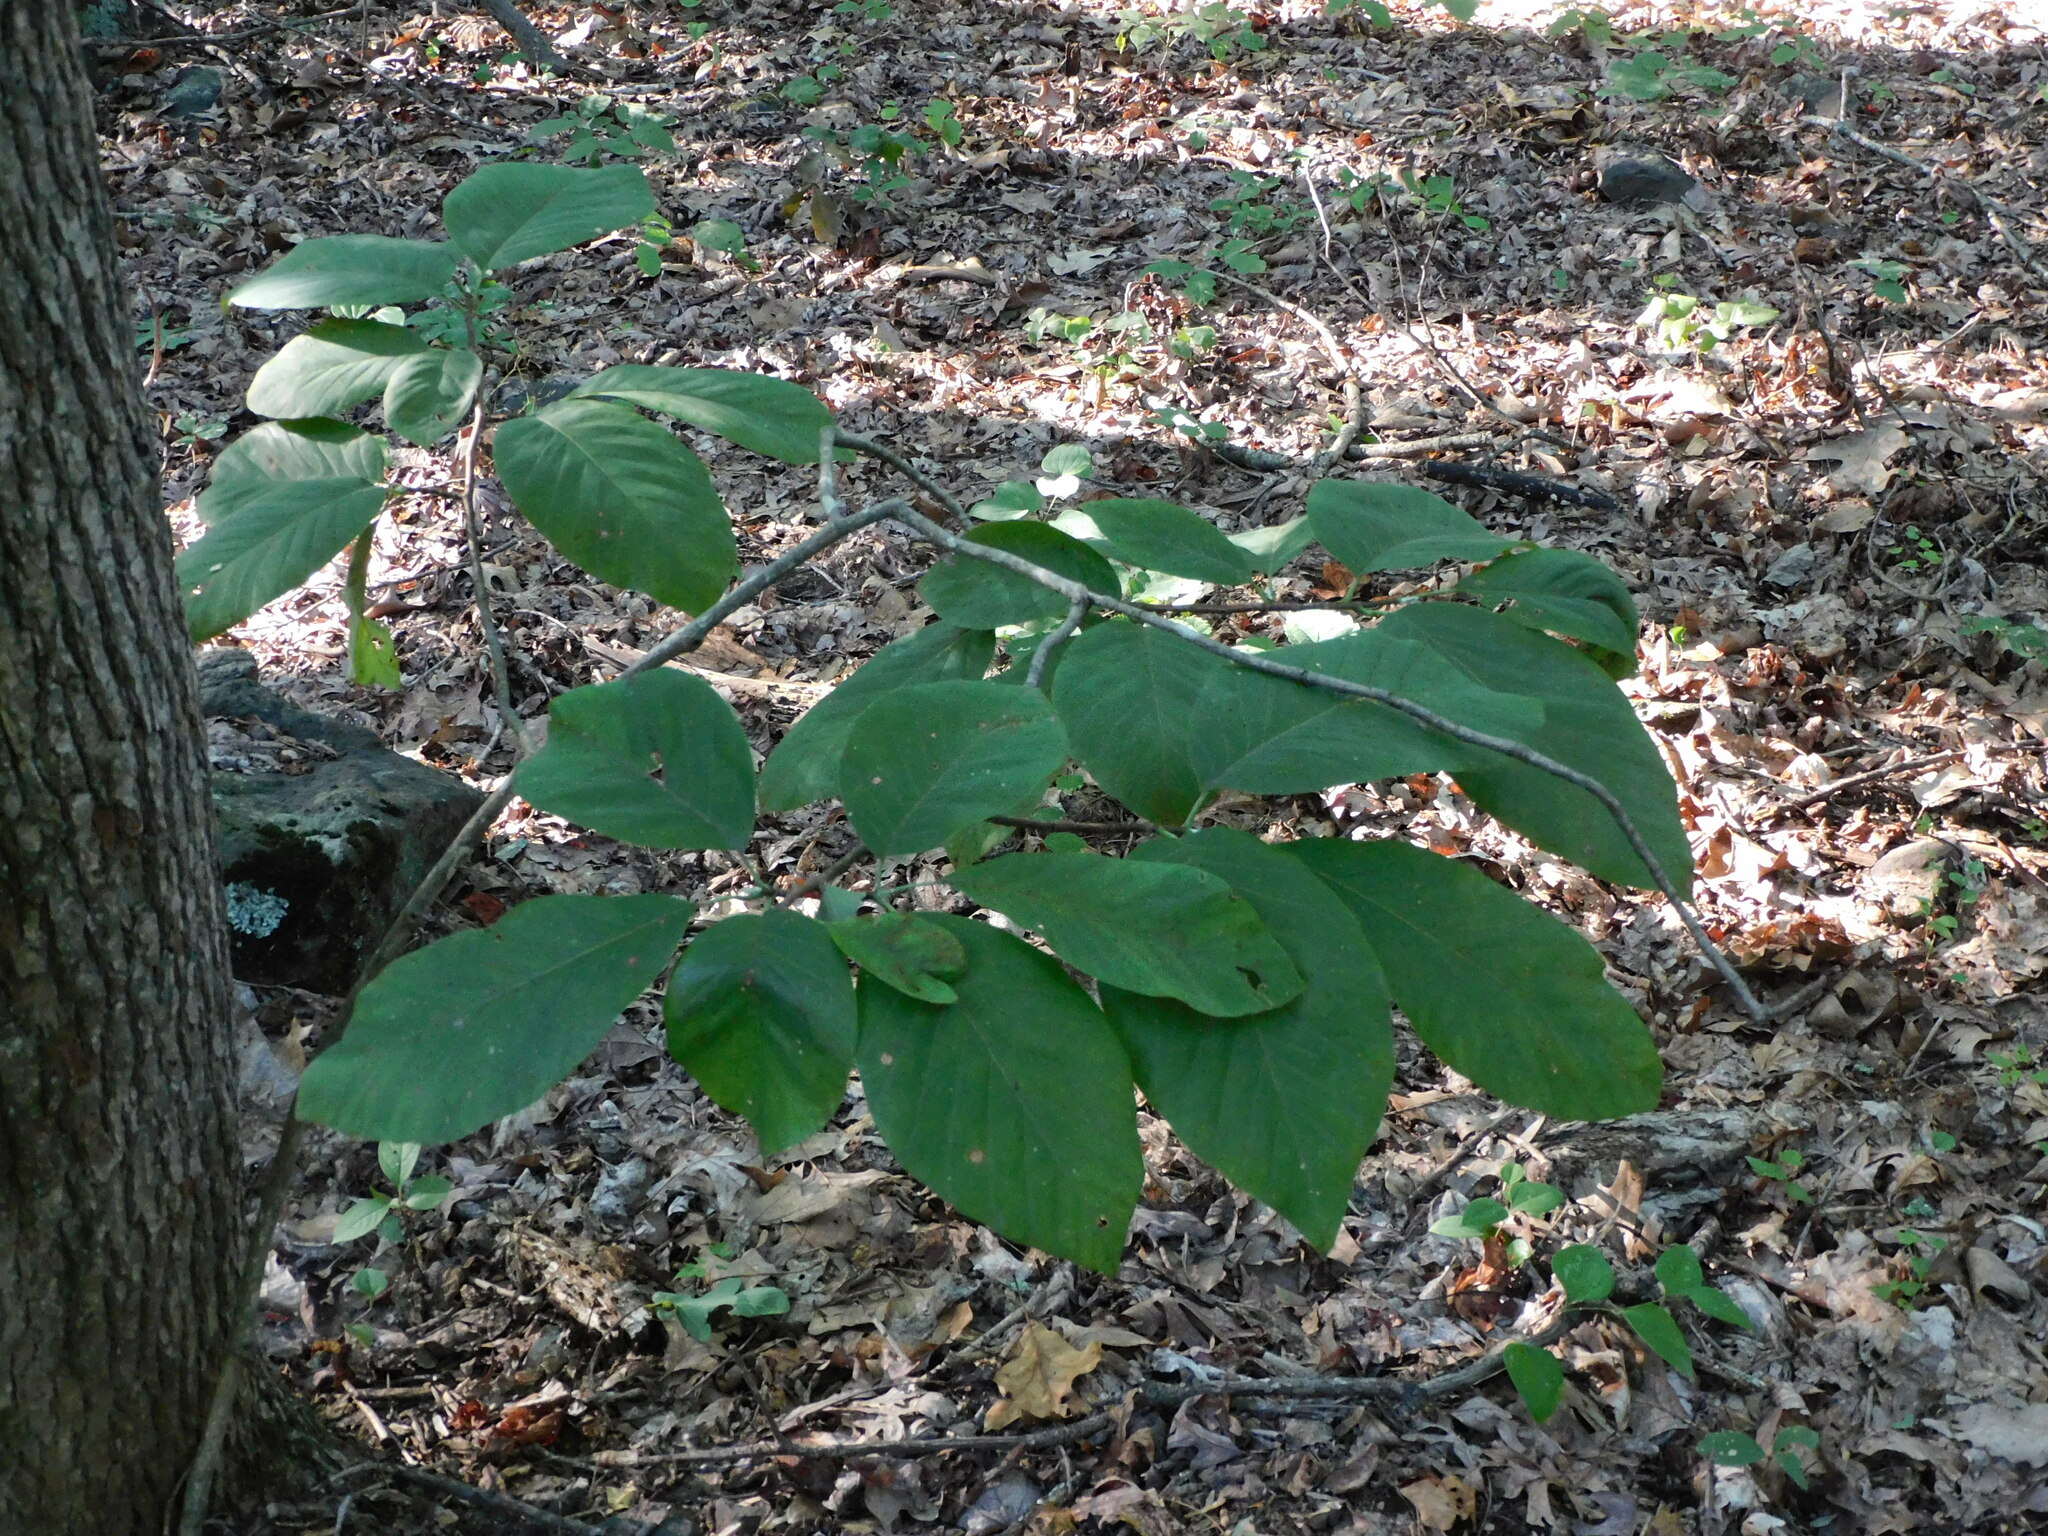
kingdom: Plantae
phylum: Tracheophyta
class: Magnoliopsida
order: Magnoliales
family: Magnoliaceae
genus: Magnolia
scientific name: Magnolia acuminata
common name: Cucumber magnolia
